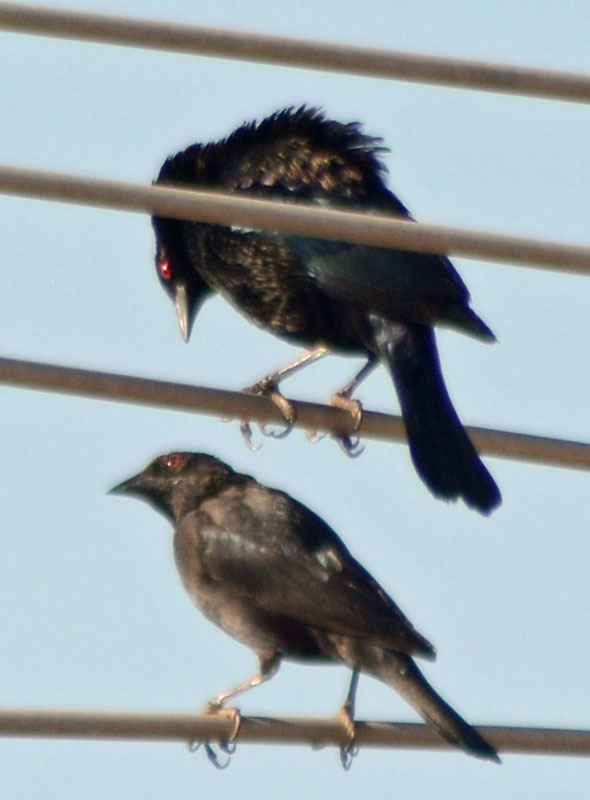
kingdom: Animalia
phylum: Chordata
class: Aves
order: Passeriformes
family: Icteridae
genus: Molothrus
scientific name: Molothrus aeneus
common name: Bronzed cowbird
